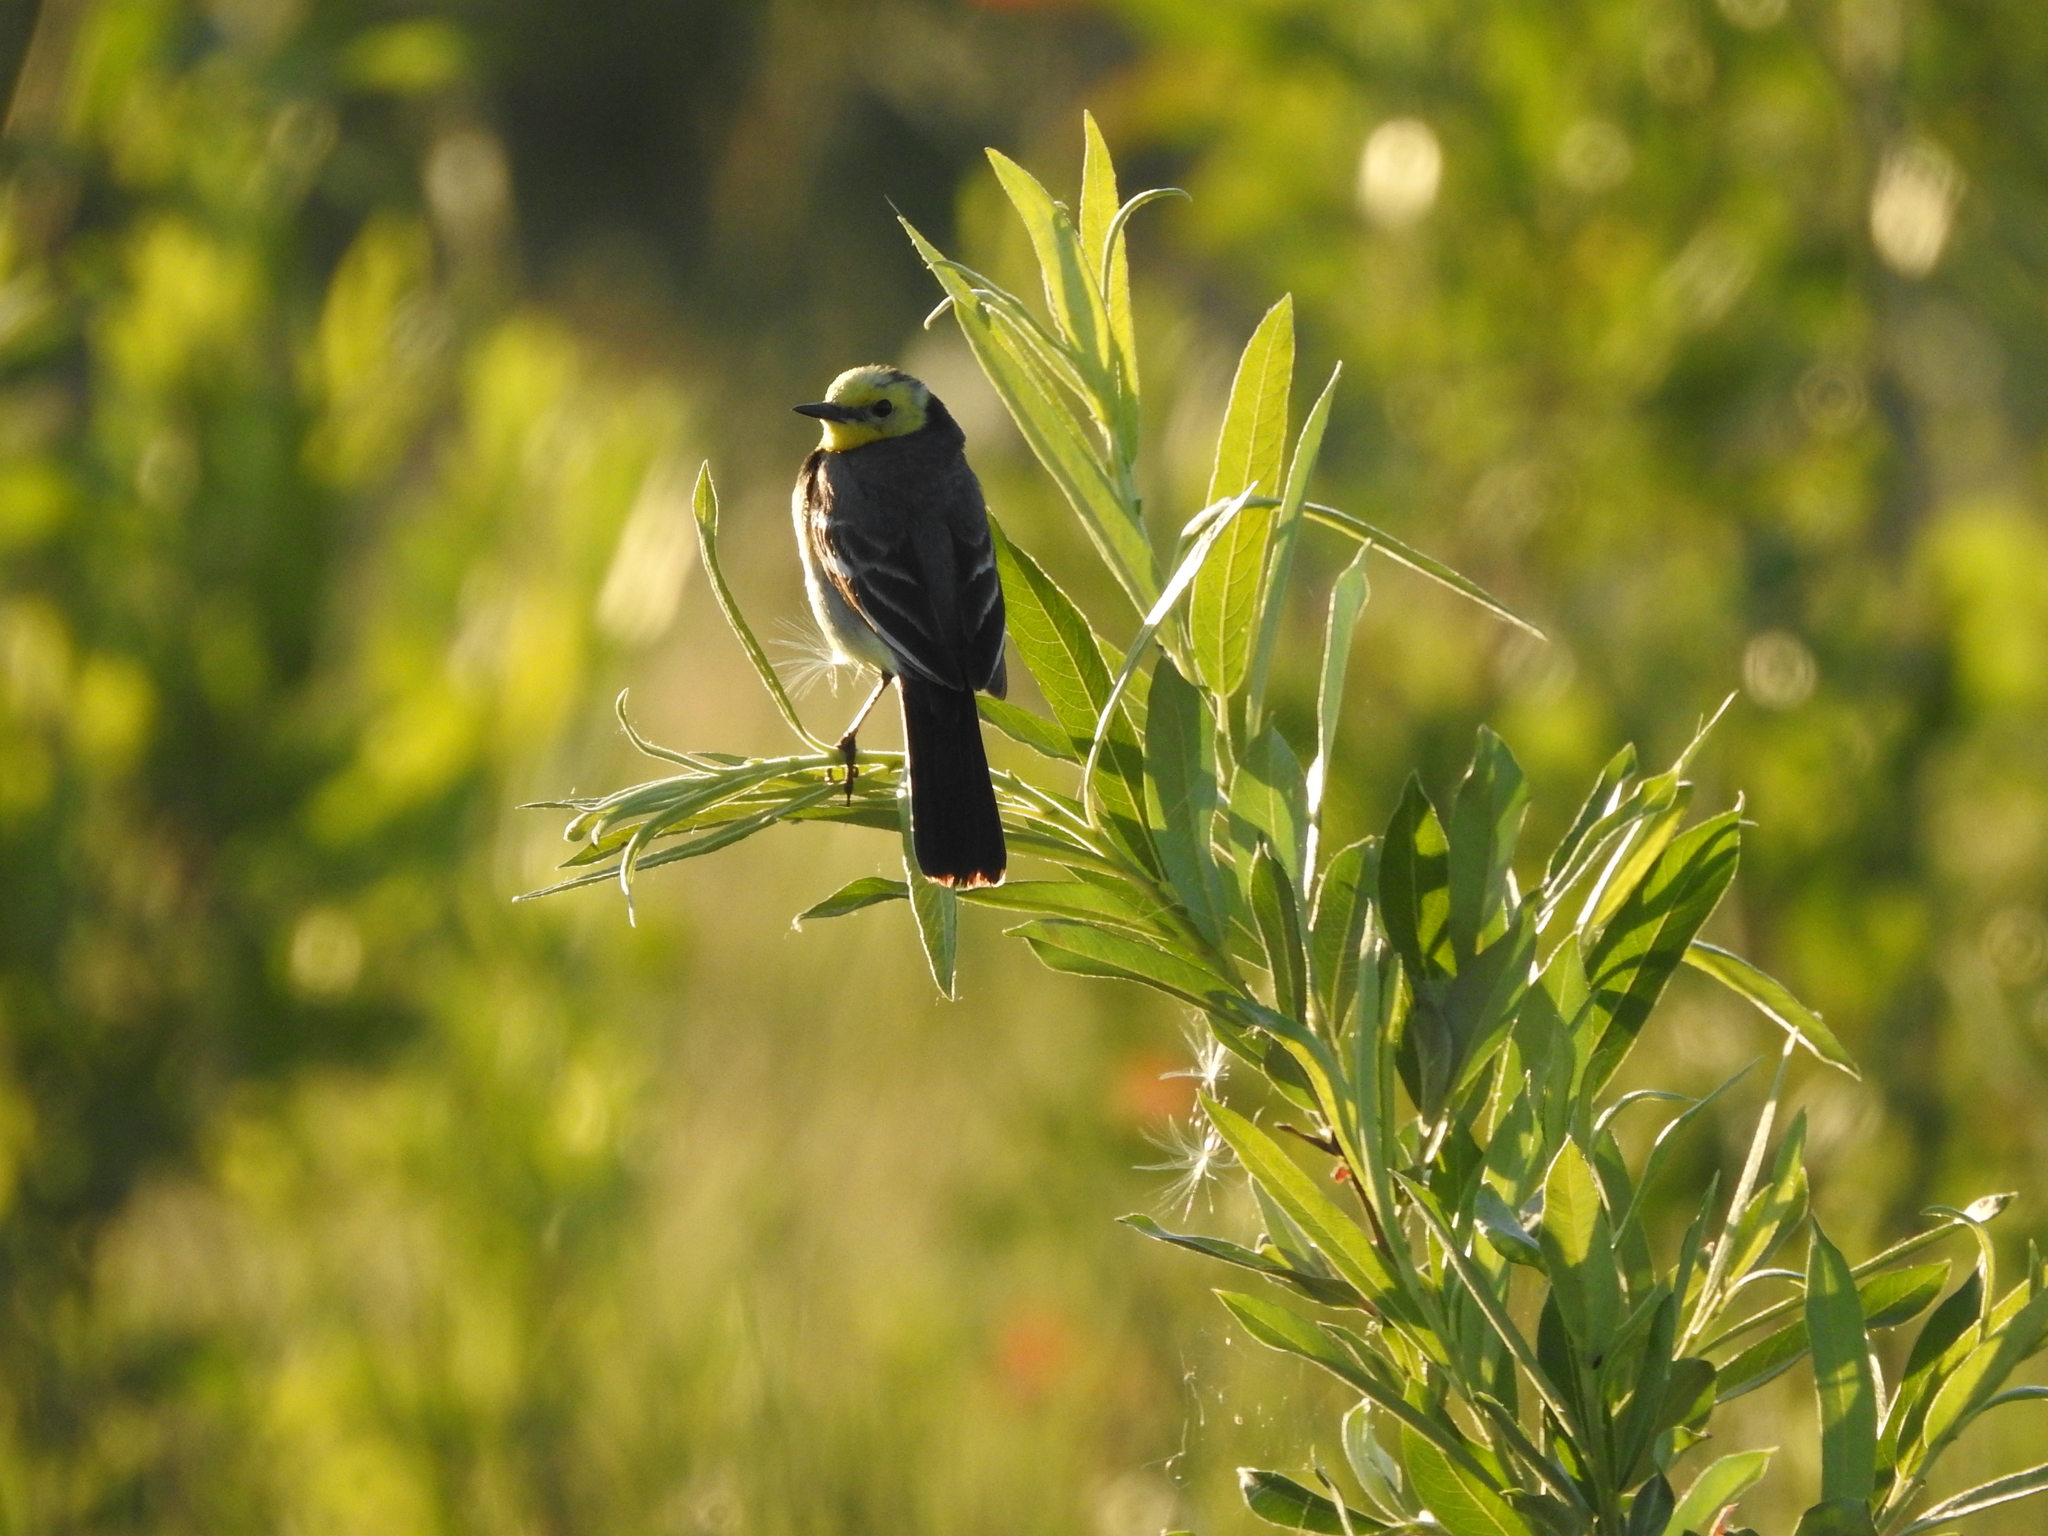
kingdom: Animalia
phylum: Chordata
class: Aves
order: Passeriformes
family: Motacillidae
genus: Motacilla
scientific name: Motacilla citreola
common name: Citrine wagtail
